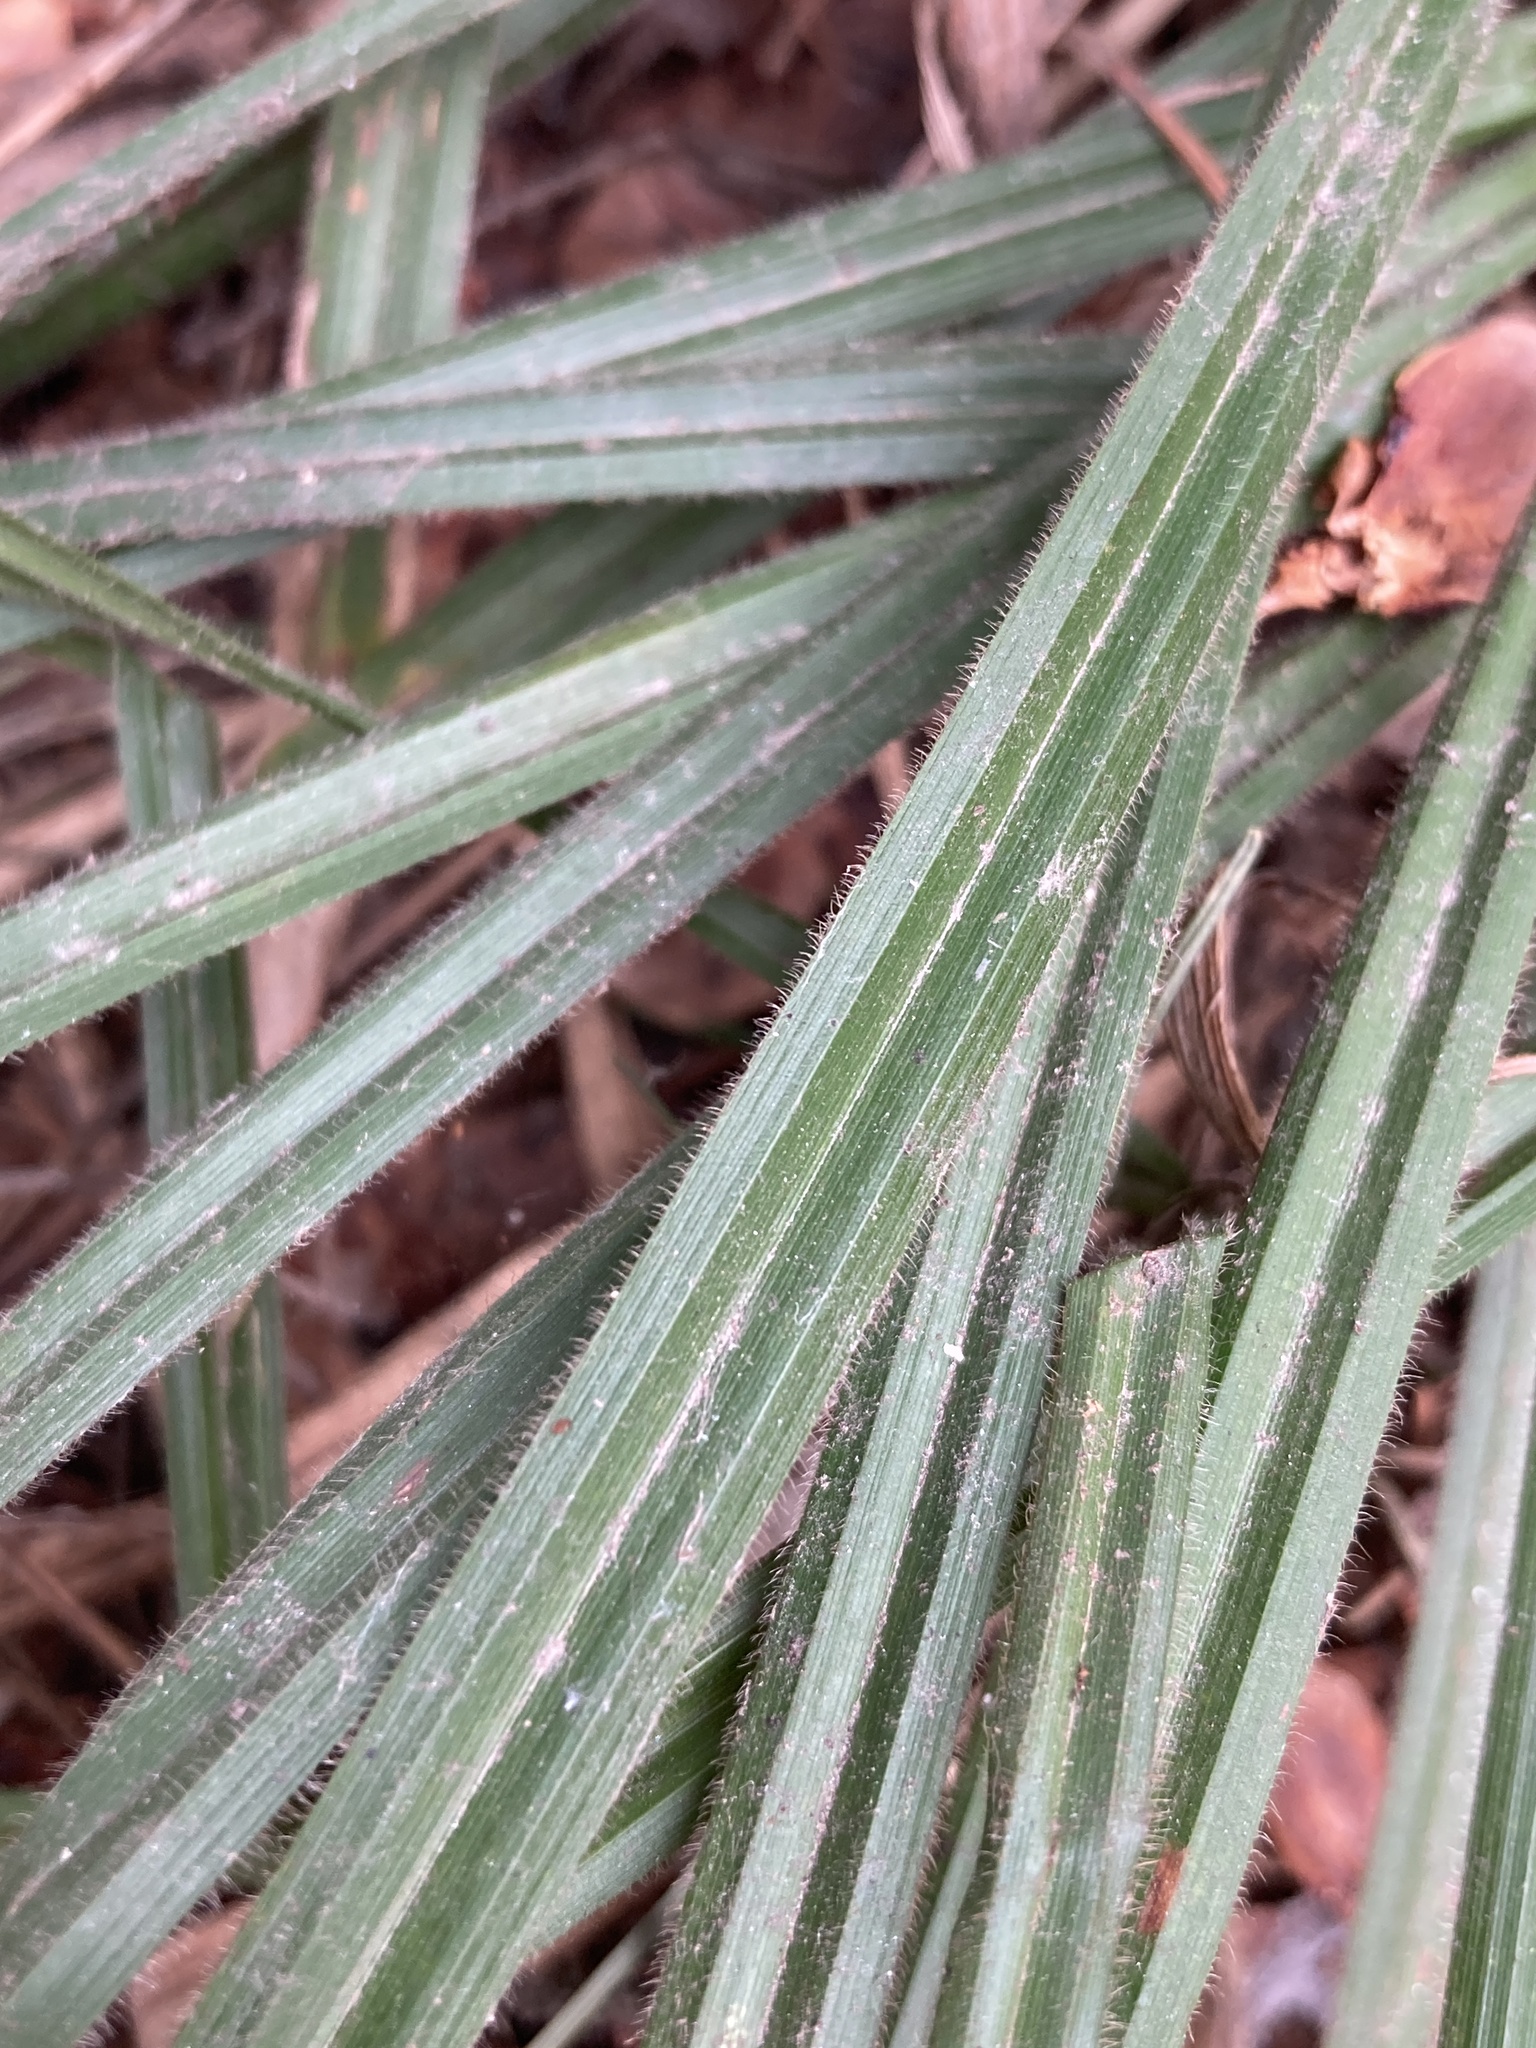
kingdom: Plantae
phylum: Tracheophyta
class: Liliopsida
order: Poales
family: Cyperaceae
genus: Carex
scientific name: Carex pilosa
